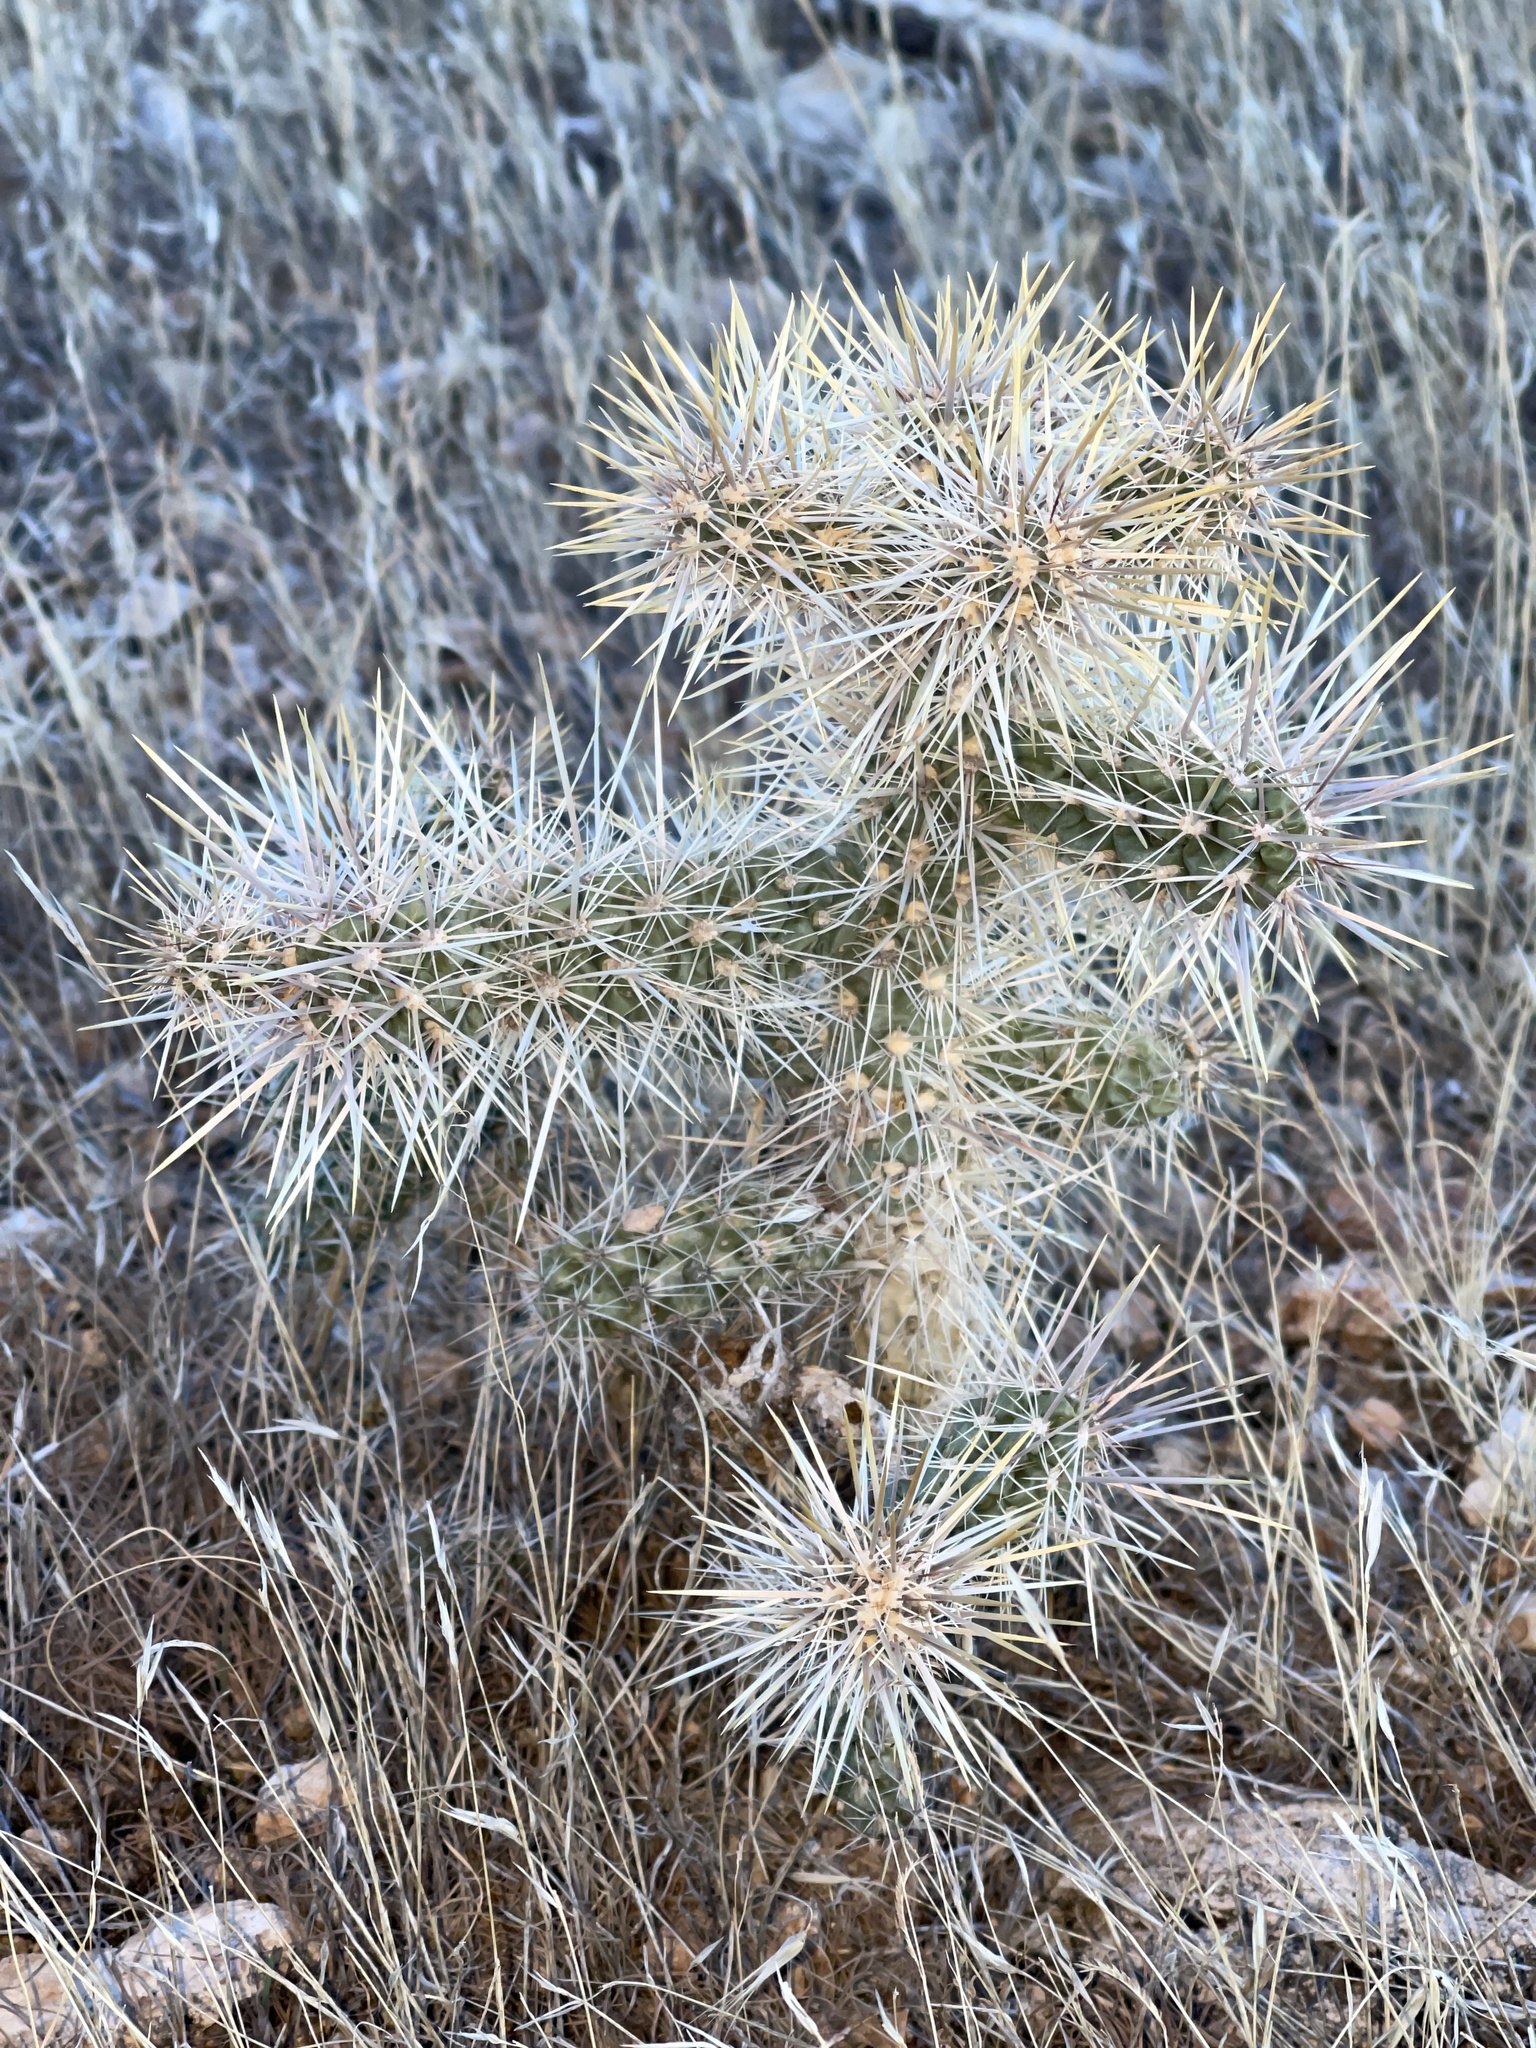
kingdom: Plantae
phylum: Tracheophyta
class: Magnoliopsida
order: Caryophyllales
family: Cactaceae
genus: Cylindropuntia
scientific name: Cylindropuntia echinocarpa
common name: Ground cholla
